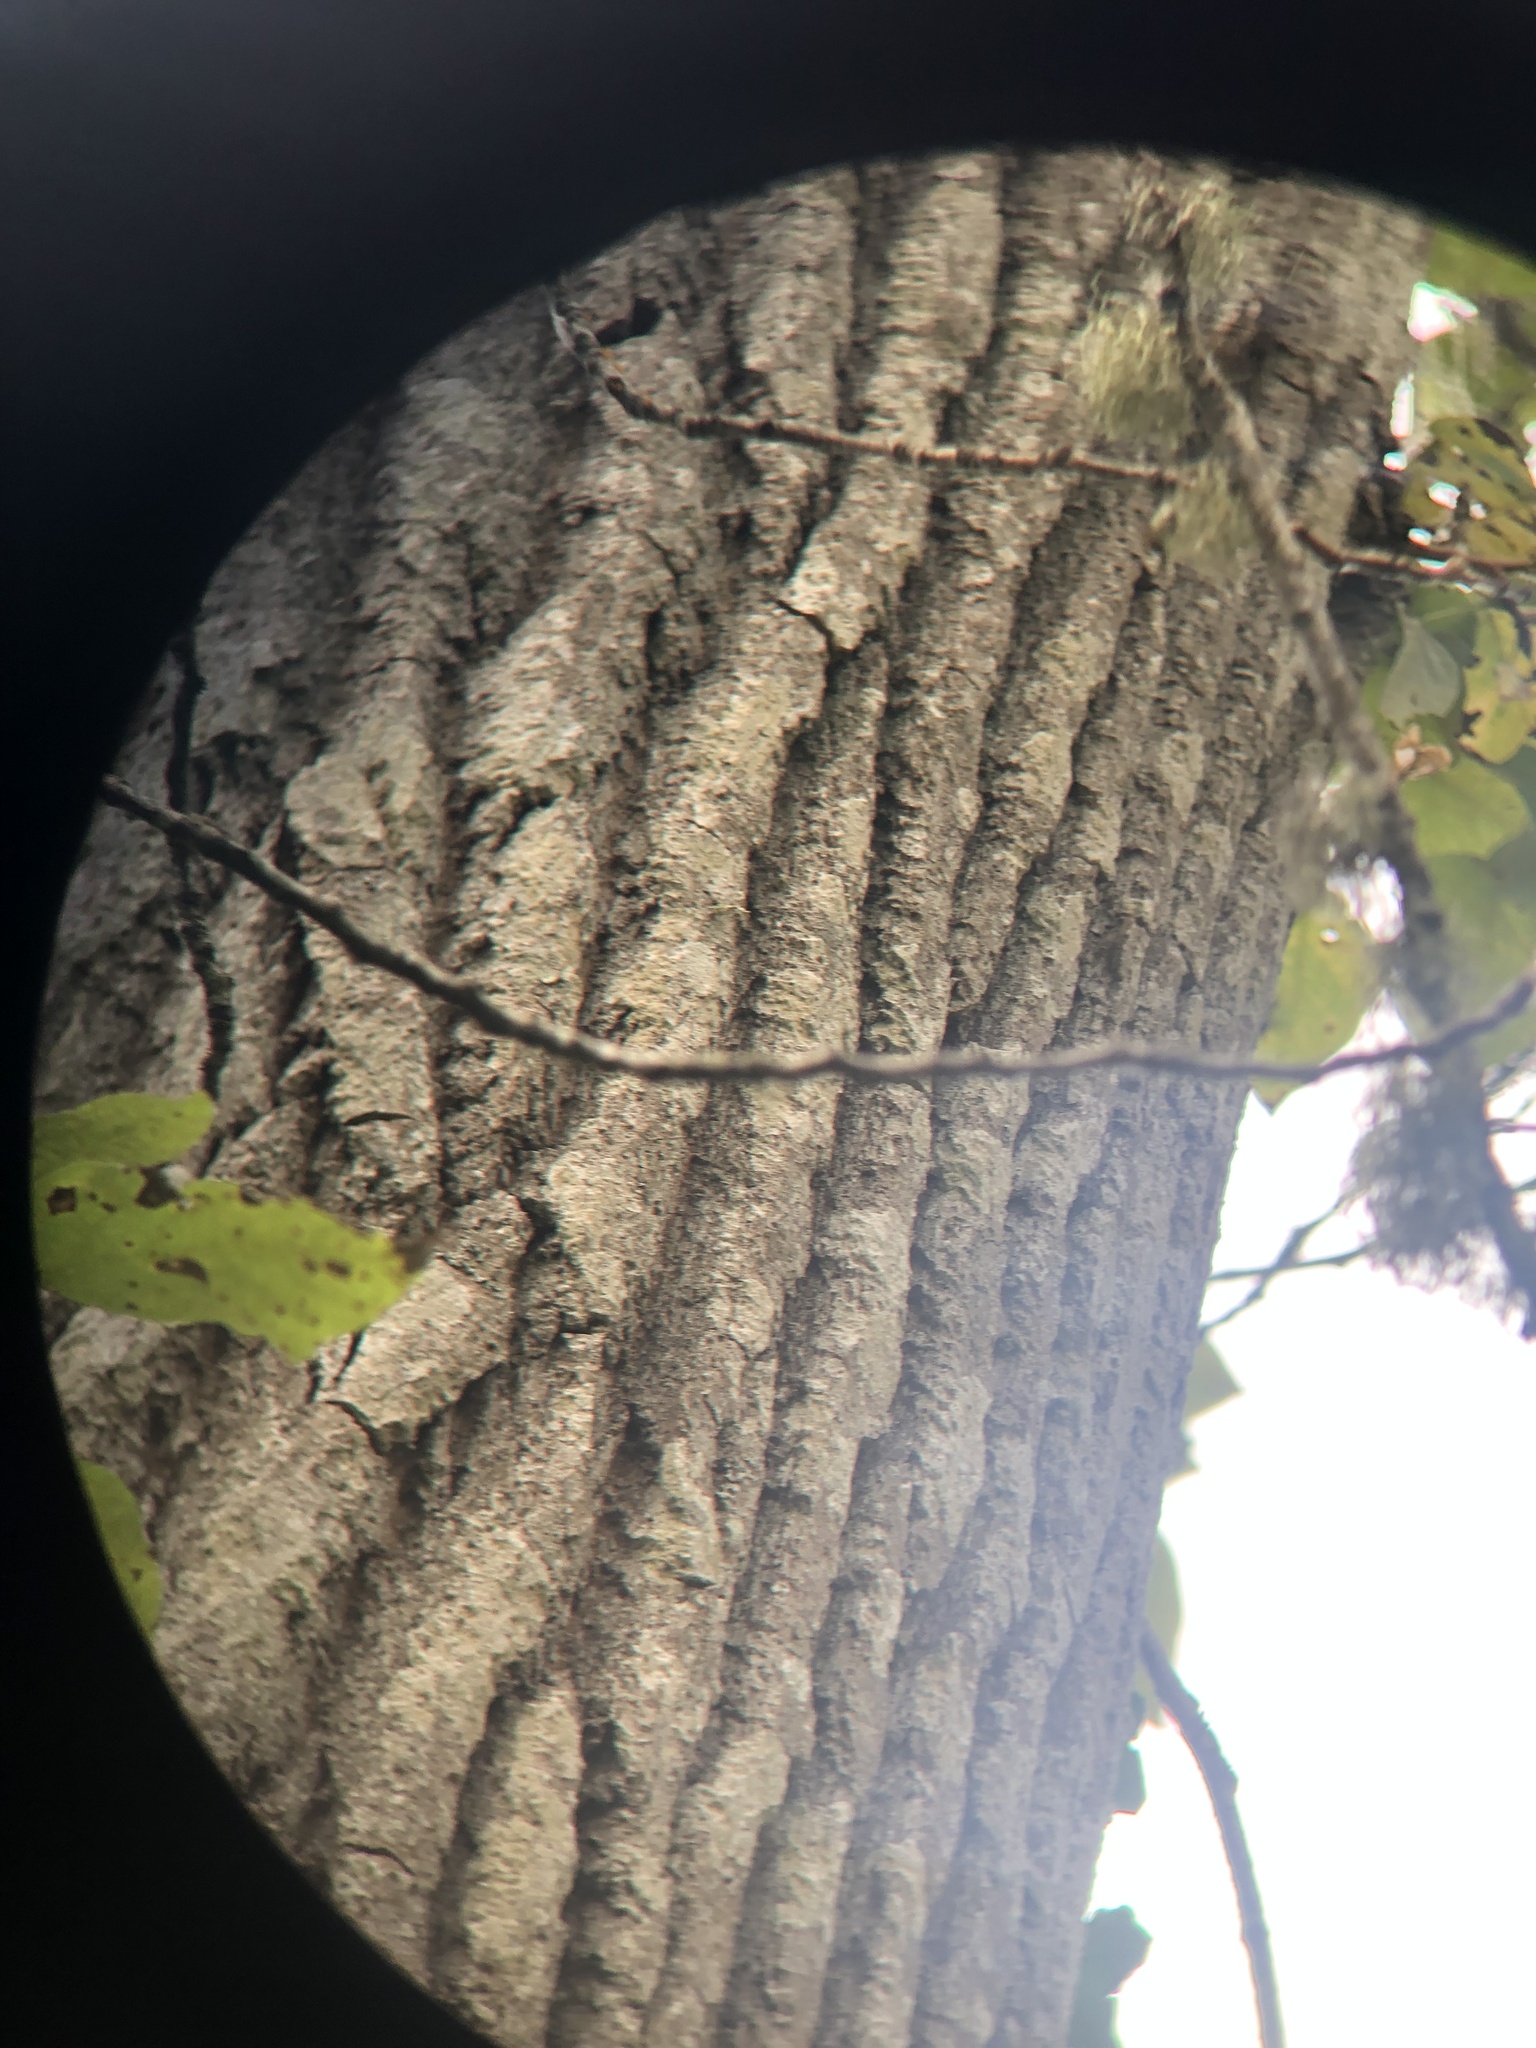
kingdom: Animalia
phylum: Chordata
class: Aves
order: Passeriformes
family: Certhiidae
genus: Certhia
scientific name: Certhia americana
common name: Brown creeper
